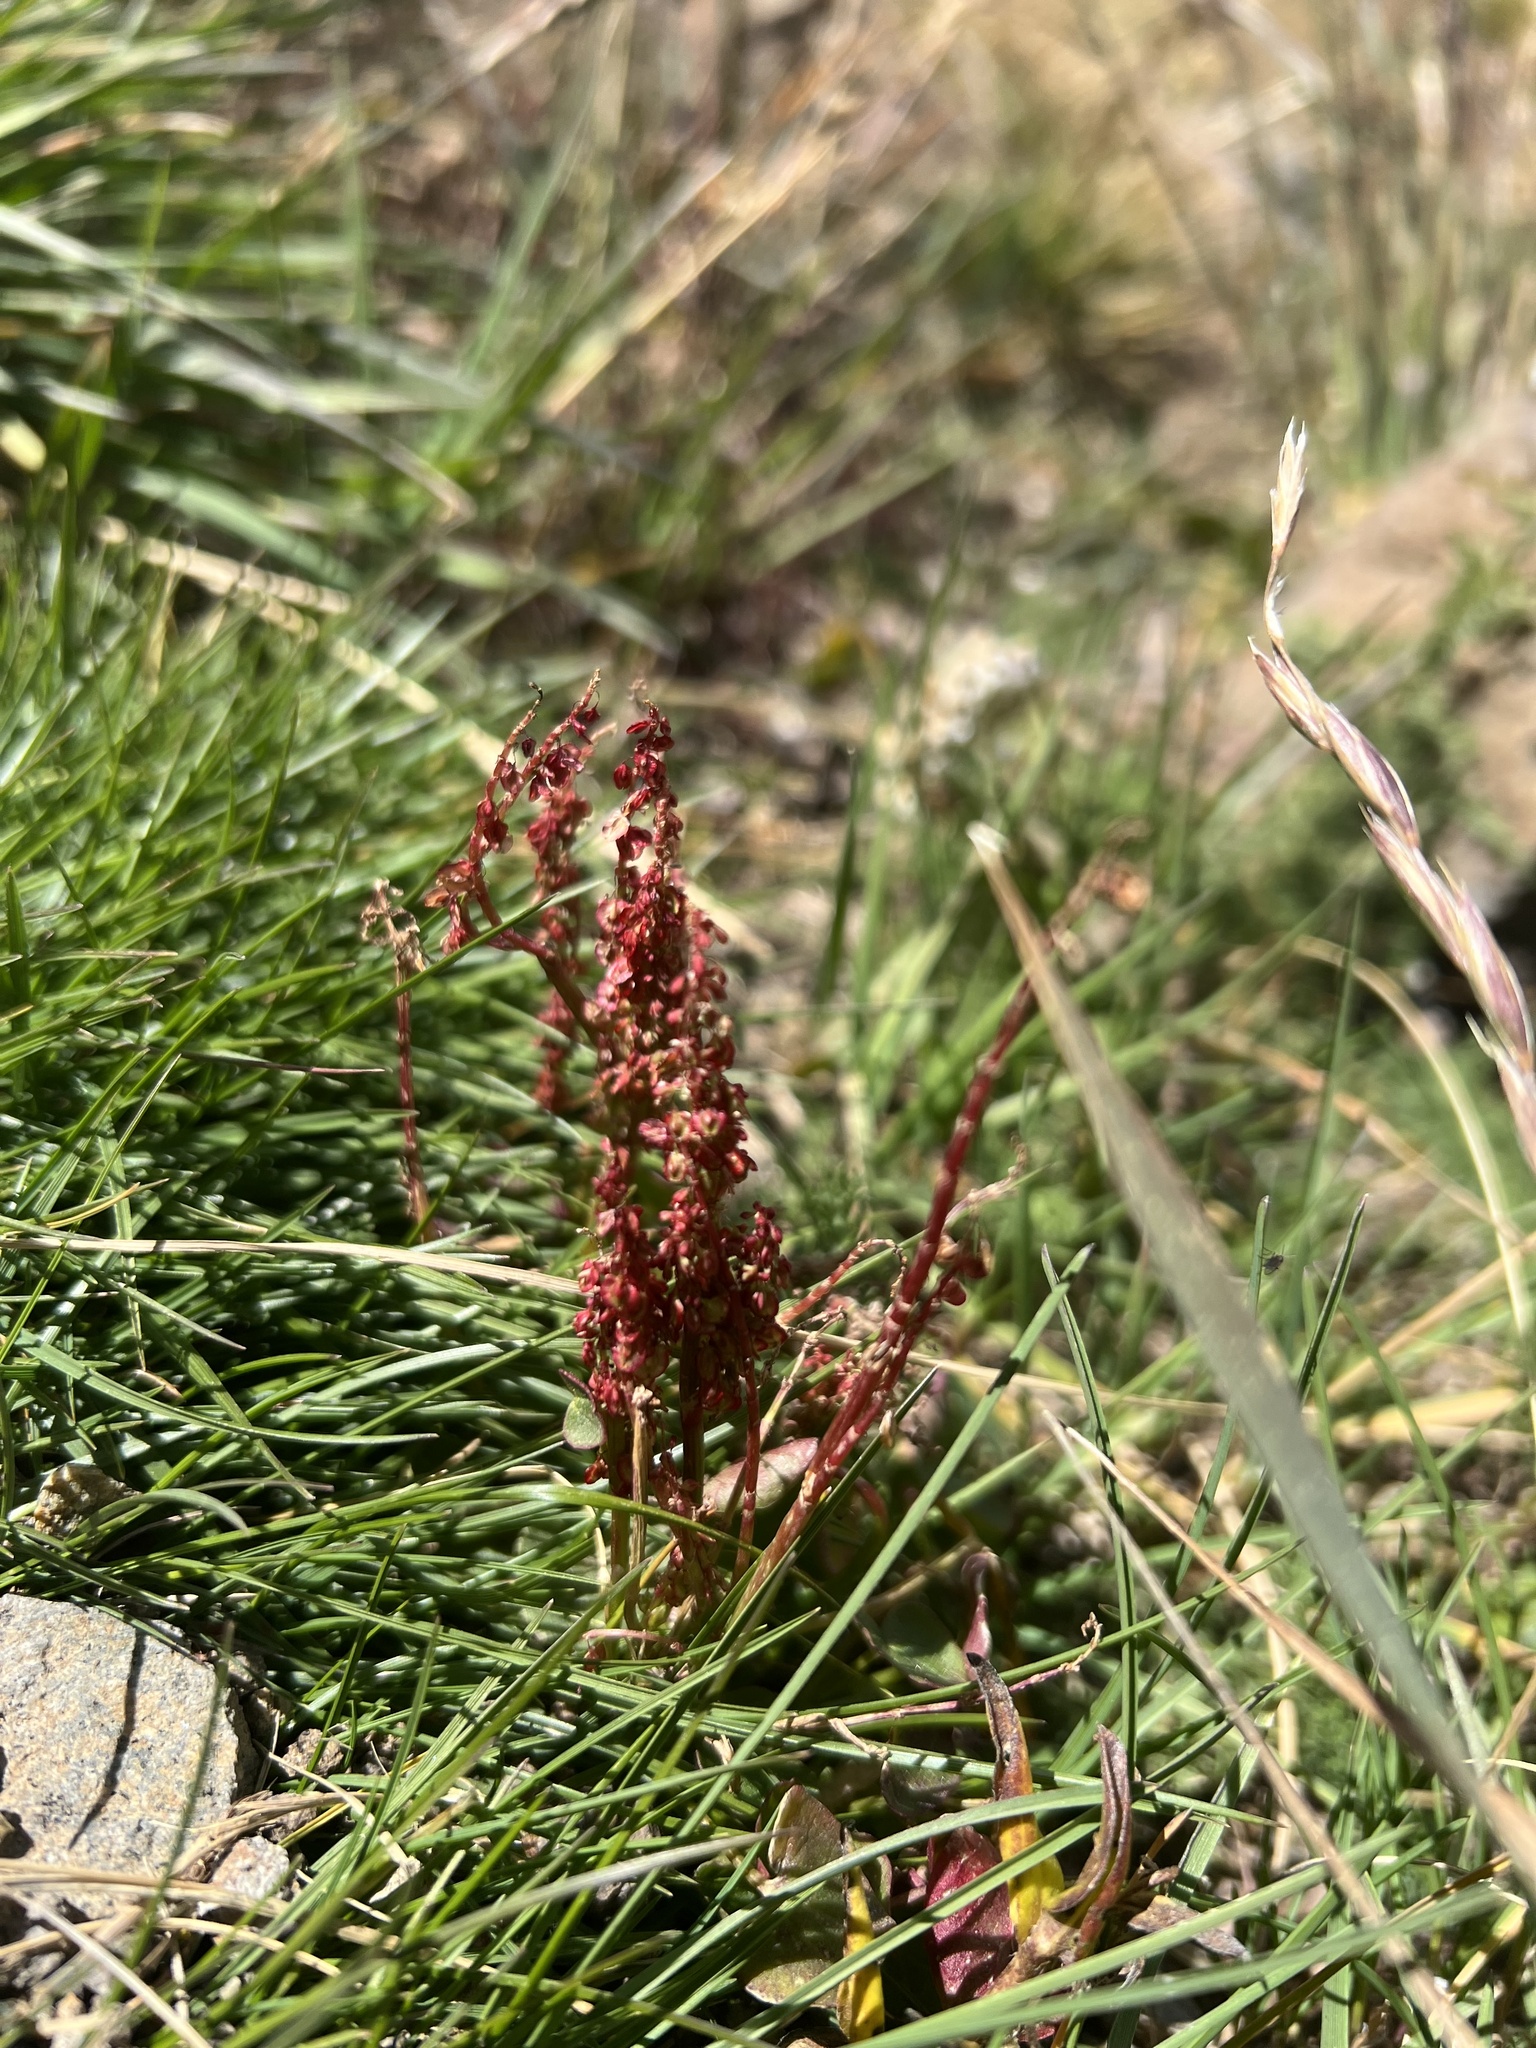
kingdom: Plantae
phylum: Tracheophyta
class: Magnoliopsida
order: Caryophyllales
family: Polygonaceae
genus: Oxyria
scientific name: Oxyria digyna
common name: Alpine mountain-sorrel
